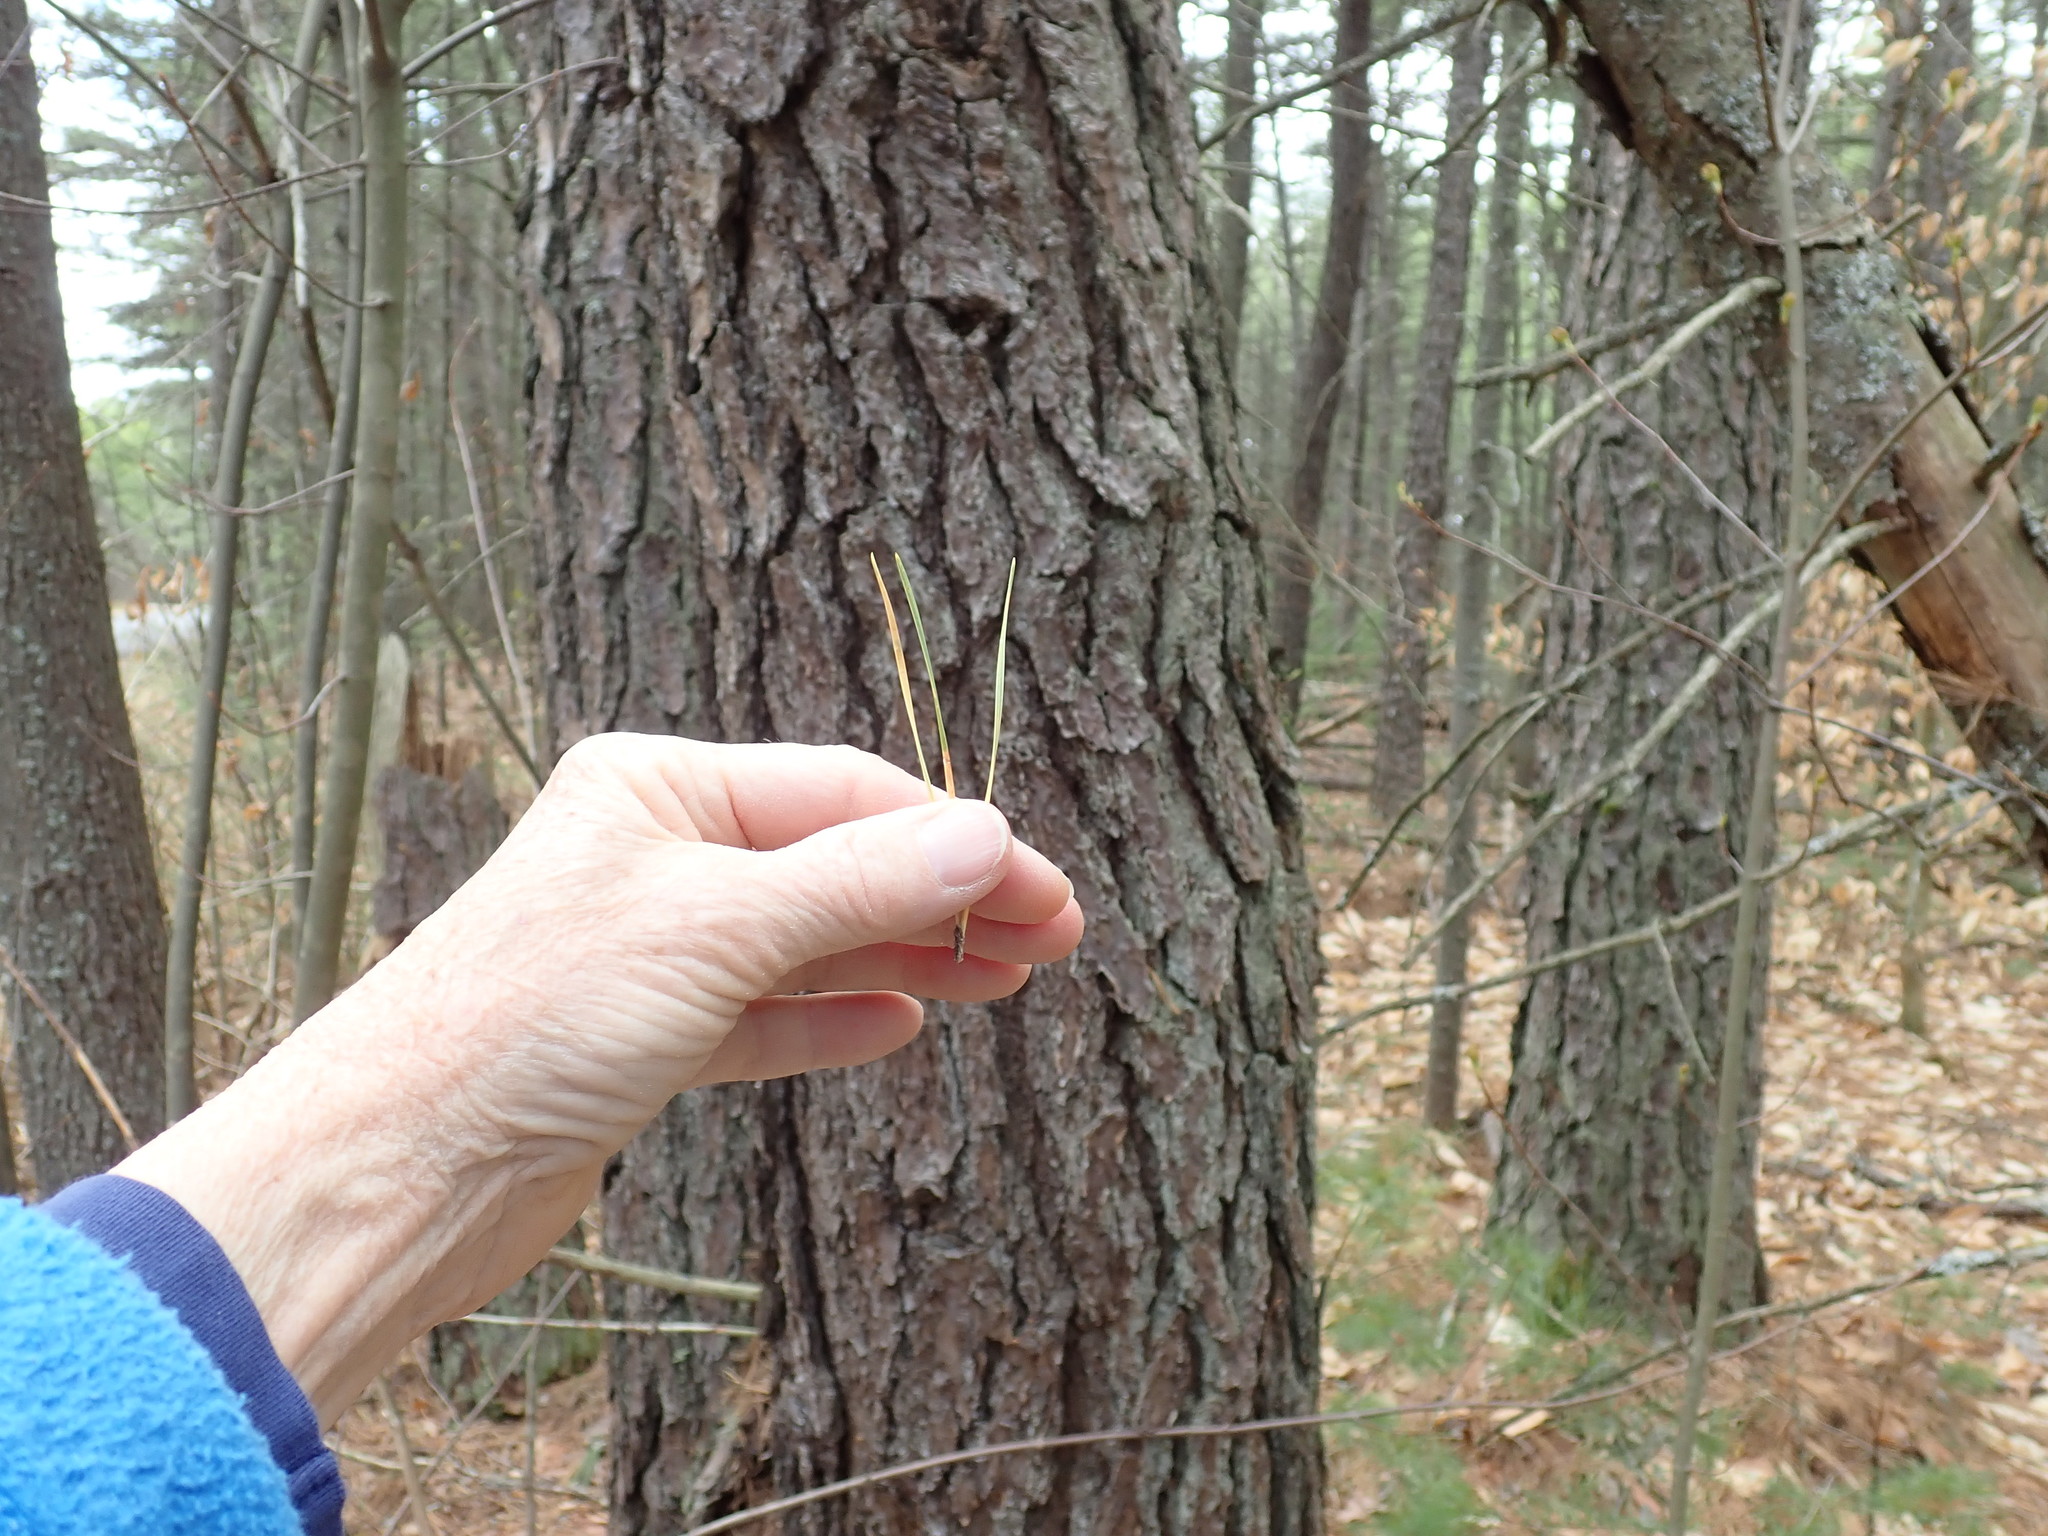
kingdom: Plantae
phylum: Tracheophyta
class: Pinopsida
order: Pinales
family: Pinaceae
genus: Pinus
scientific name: Pinus rigida
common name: Pitch pine
